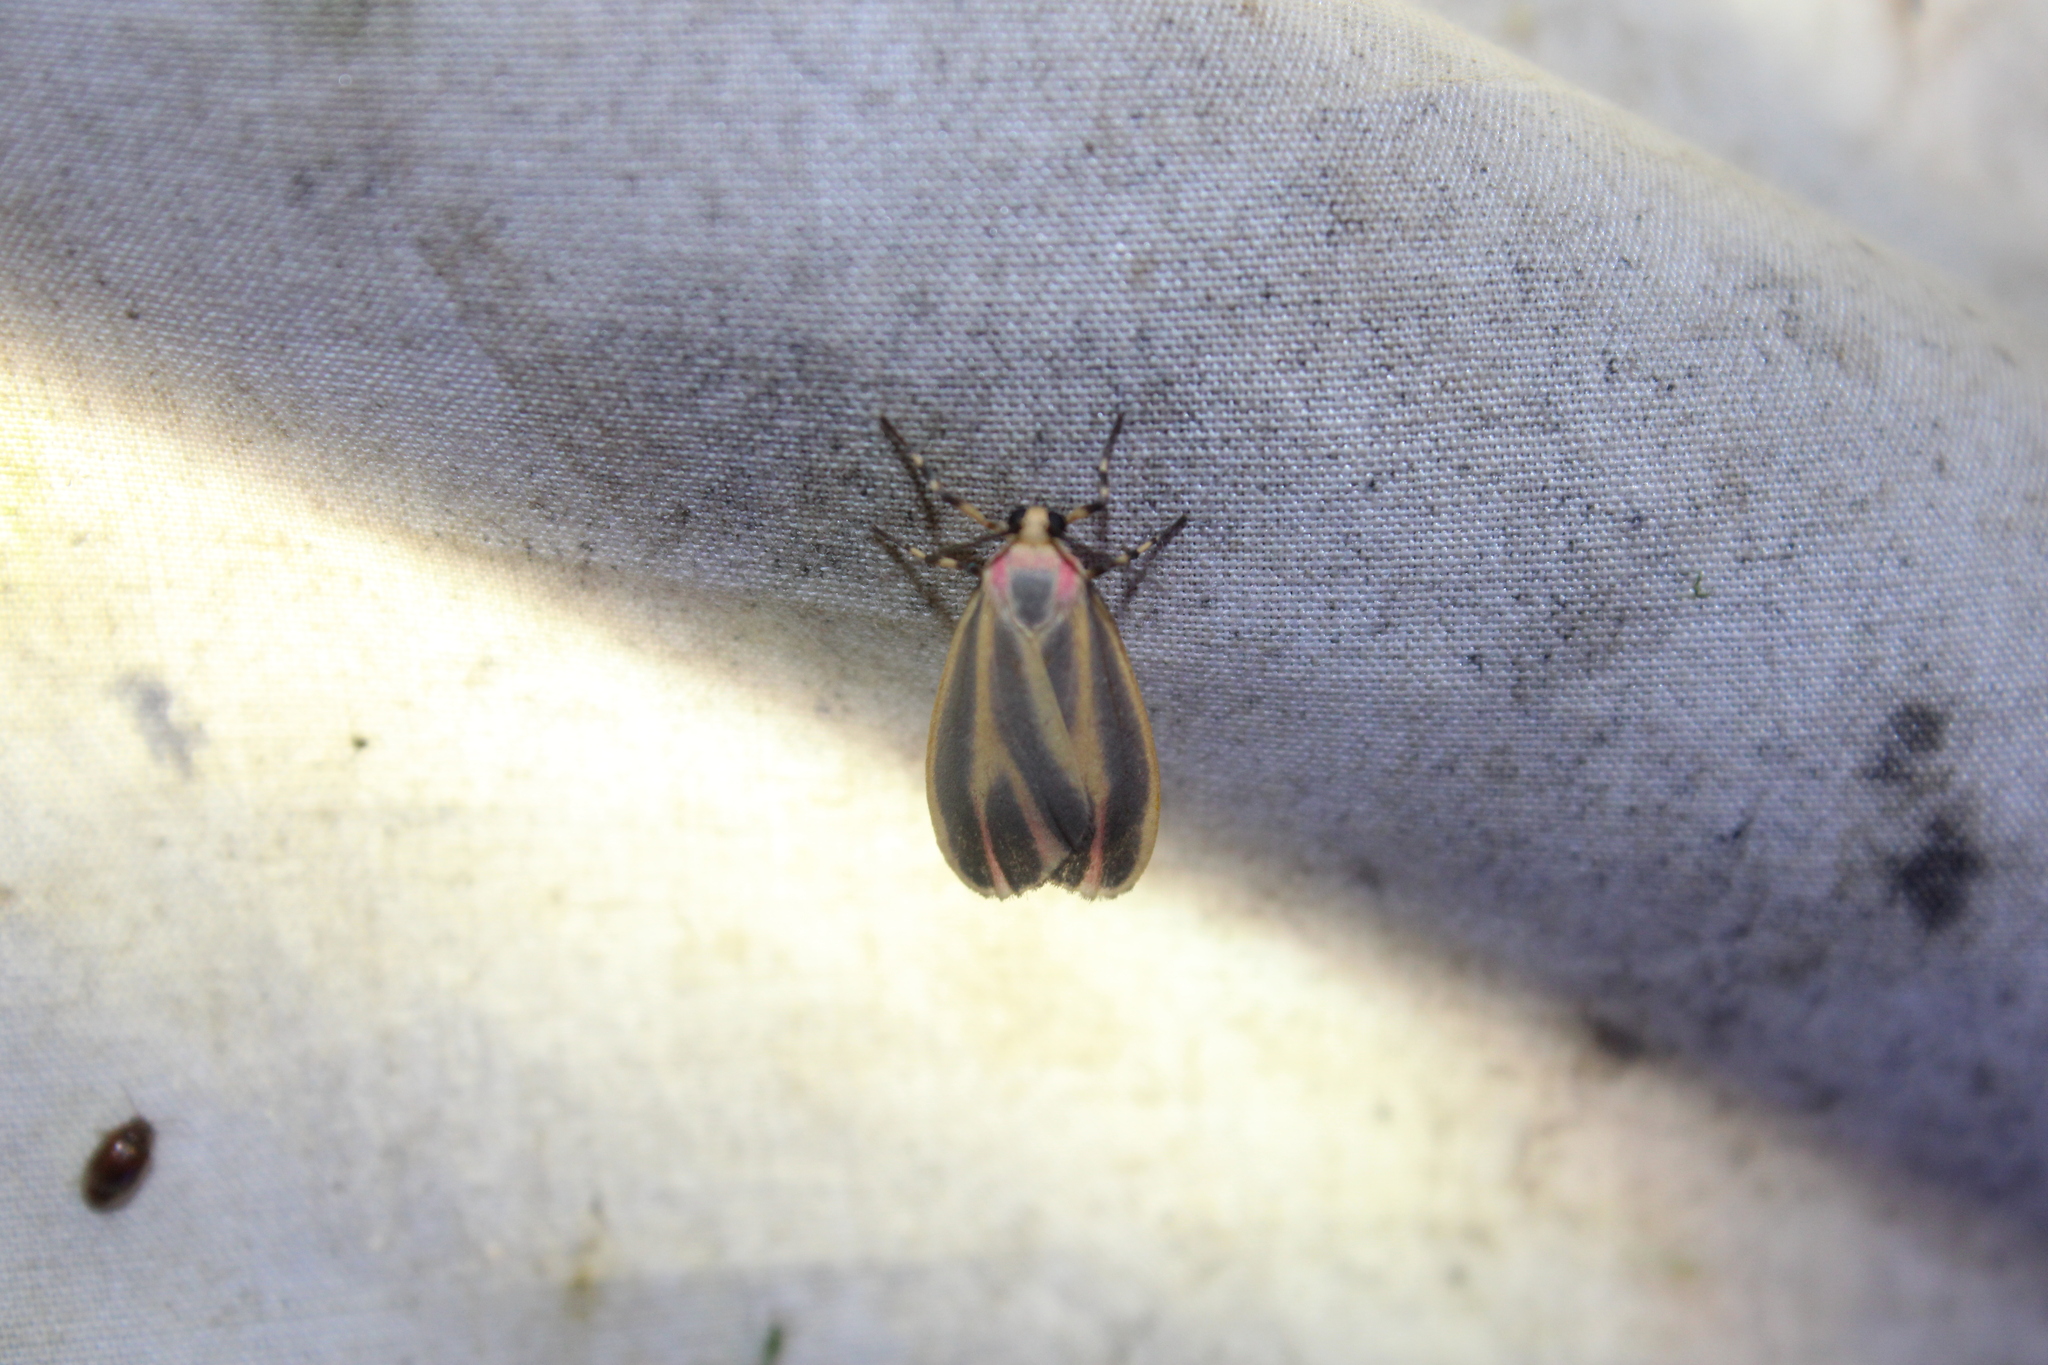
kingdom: Animalia
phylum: Arthropoda
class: Insecta
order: Lepidoptera
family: Erebidae
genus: Hypoprepia
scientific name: Hypoprepia fucosa
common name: Painted lichen moth
